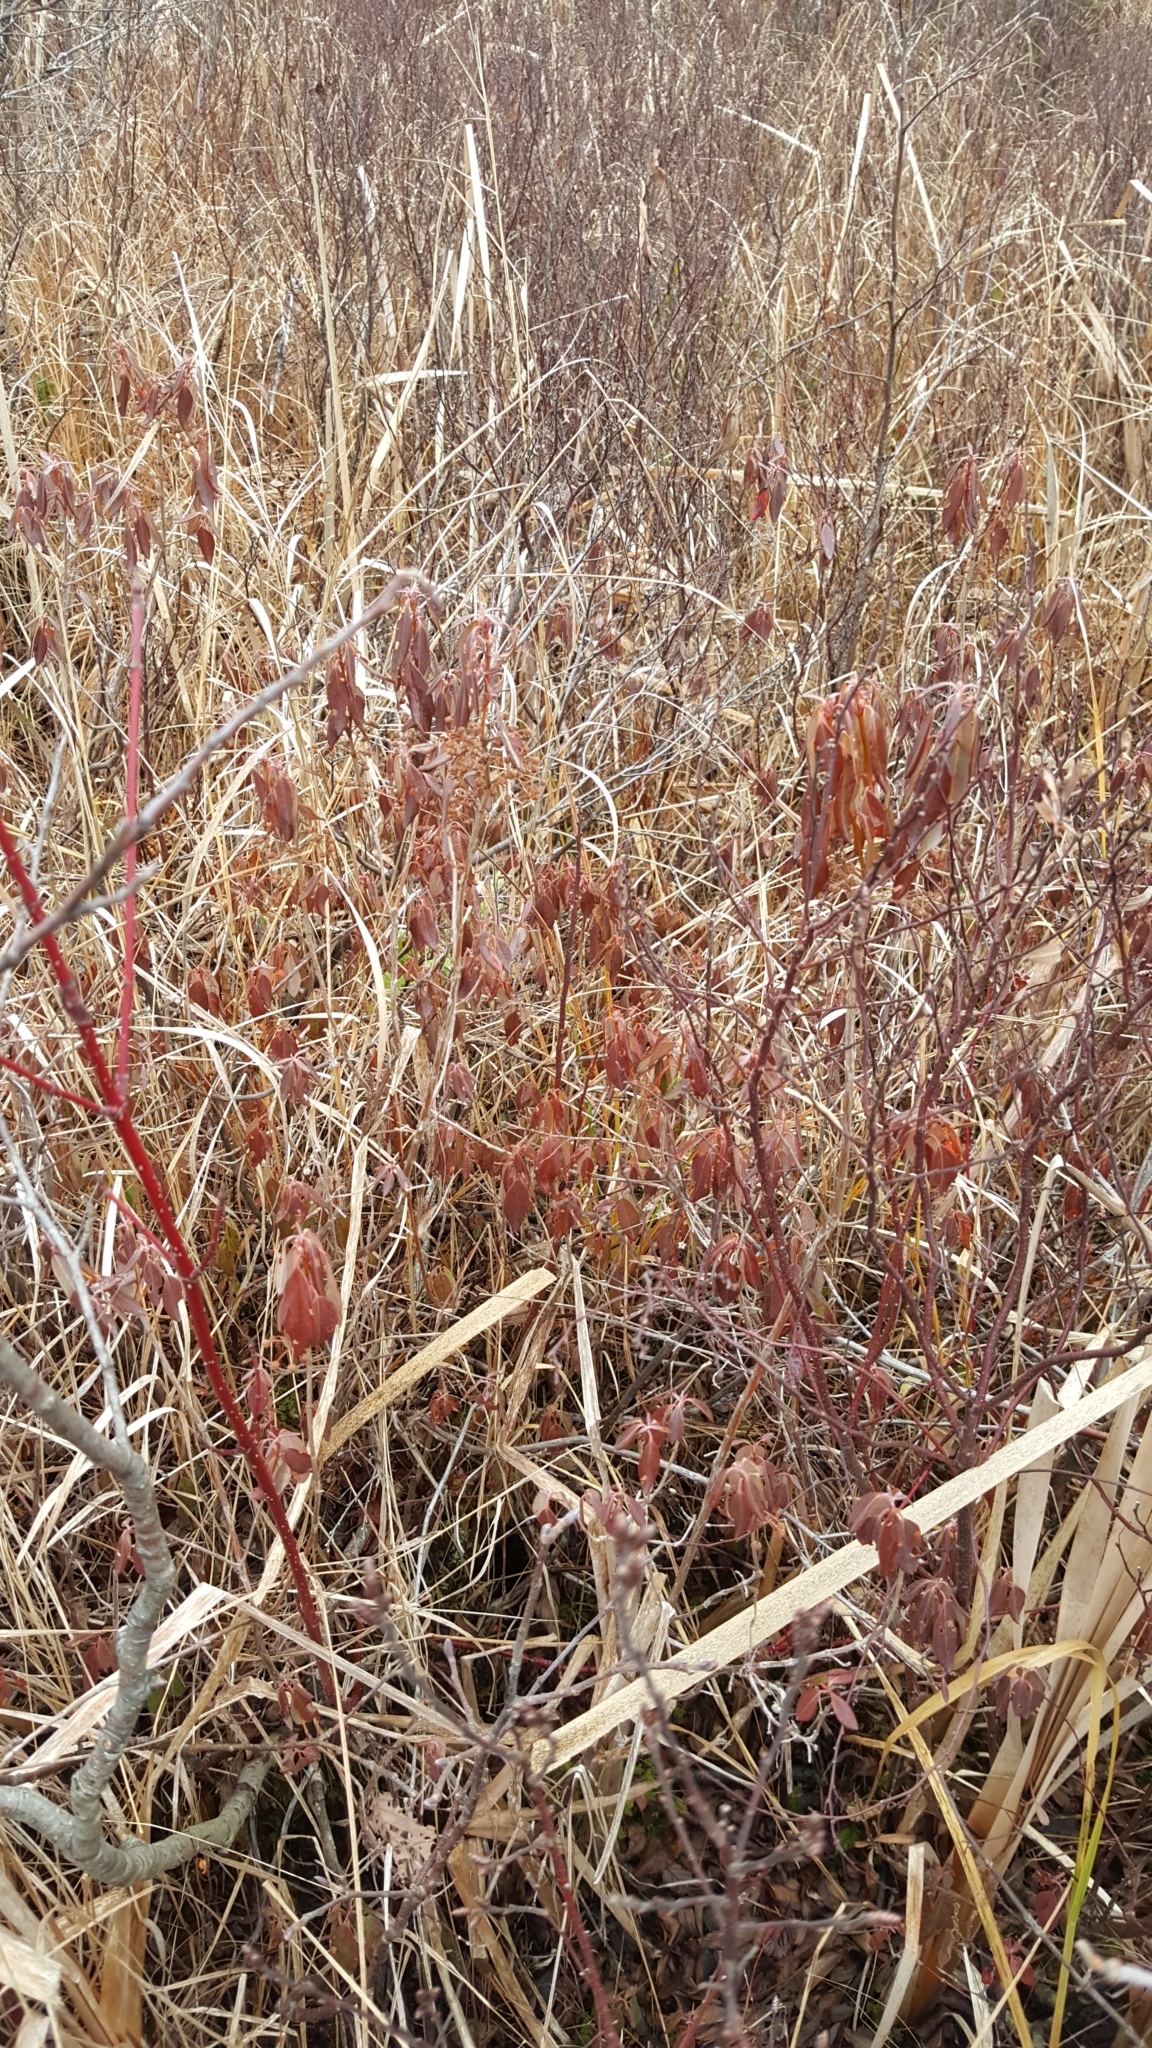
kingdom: Plantae
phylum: Tracheophyta
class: Magnoliopsida
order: Ericales
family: Ericaceae
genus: Kalmia
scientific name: Kalmia angustifolia
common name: Sheep-laurel
